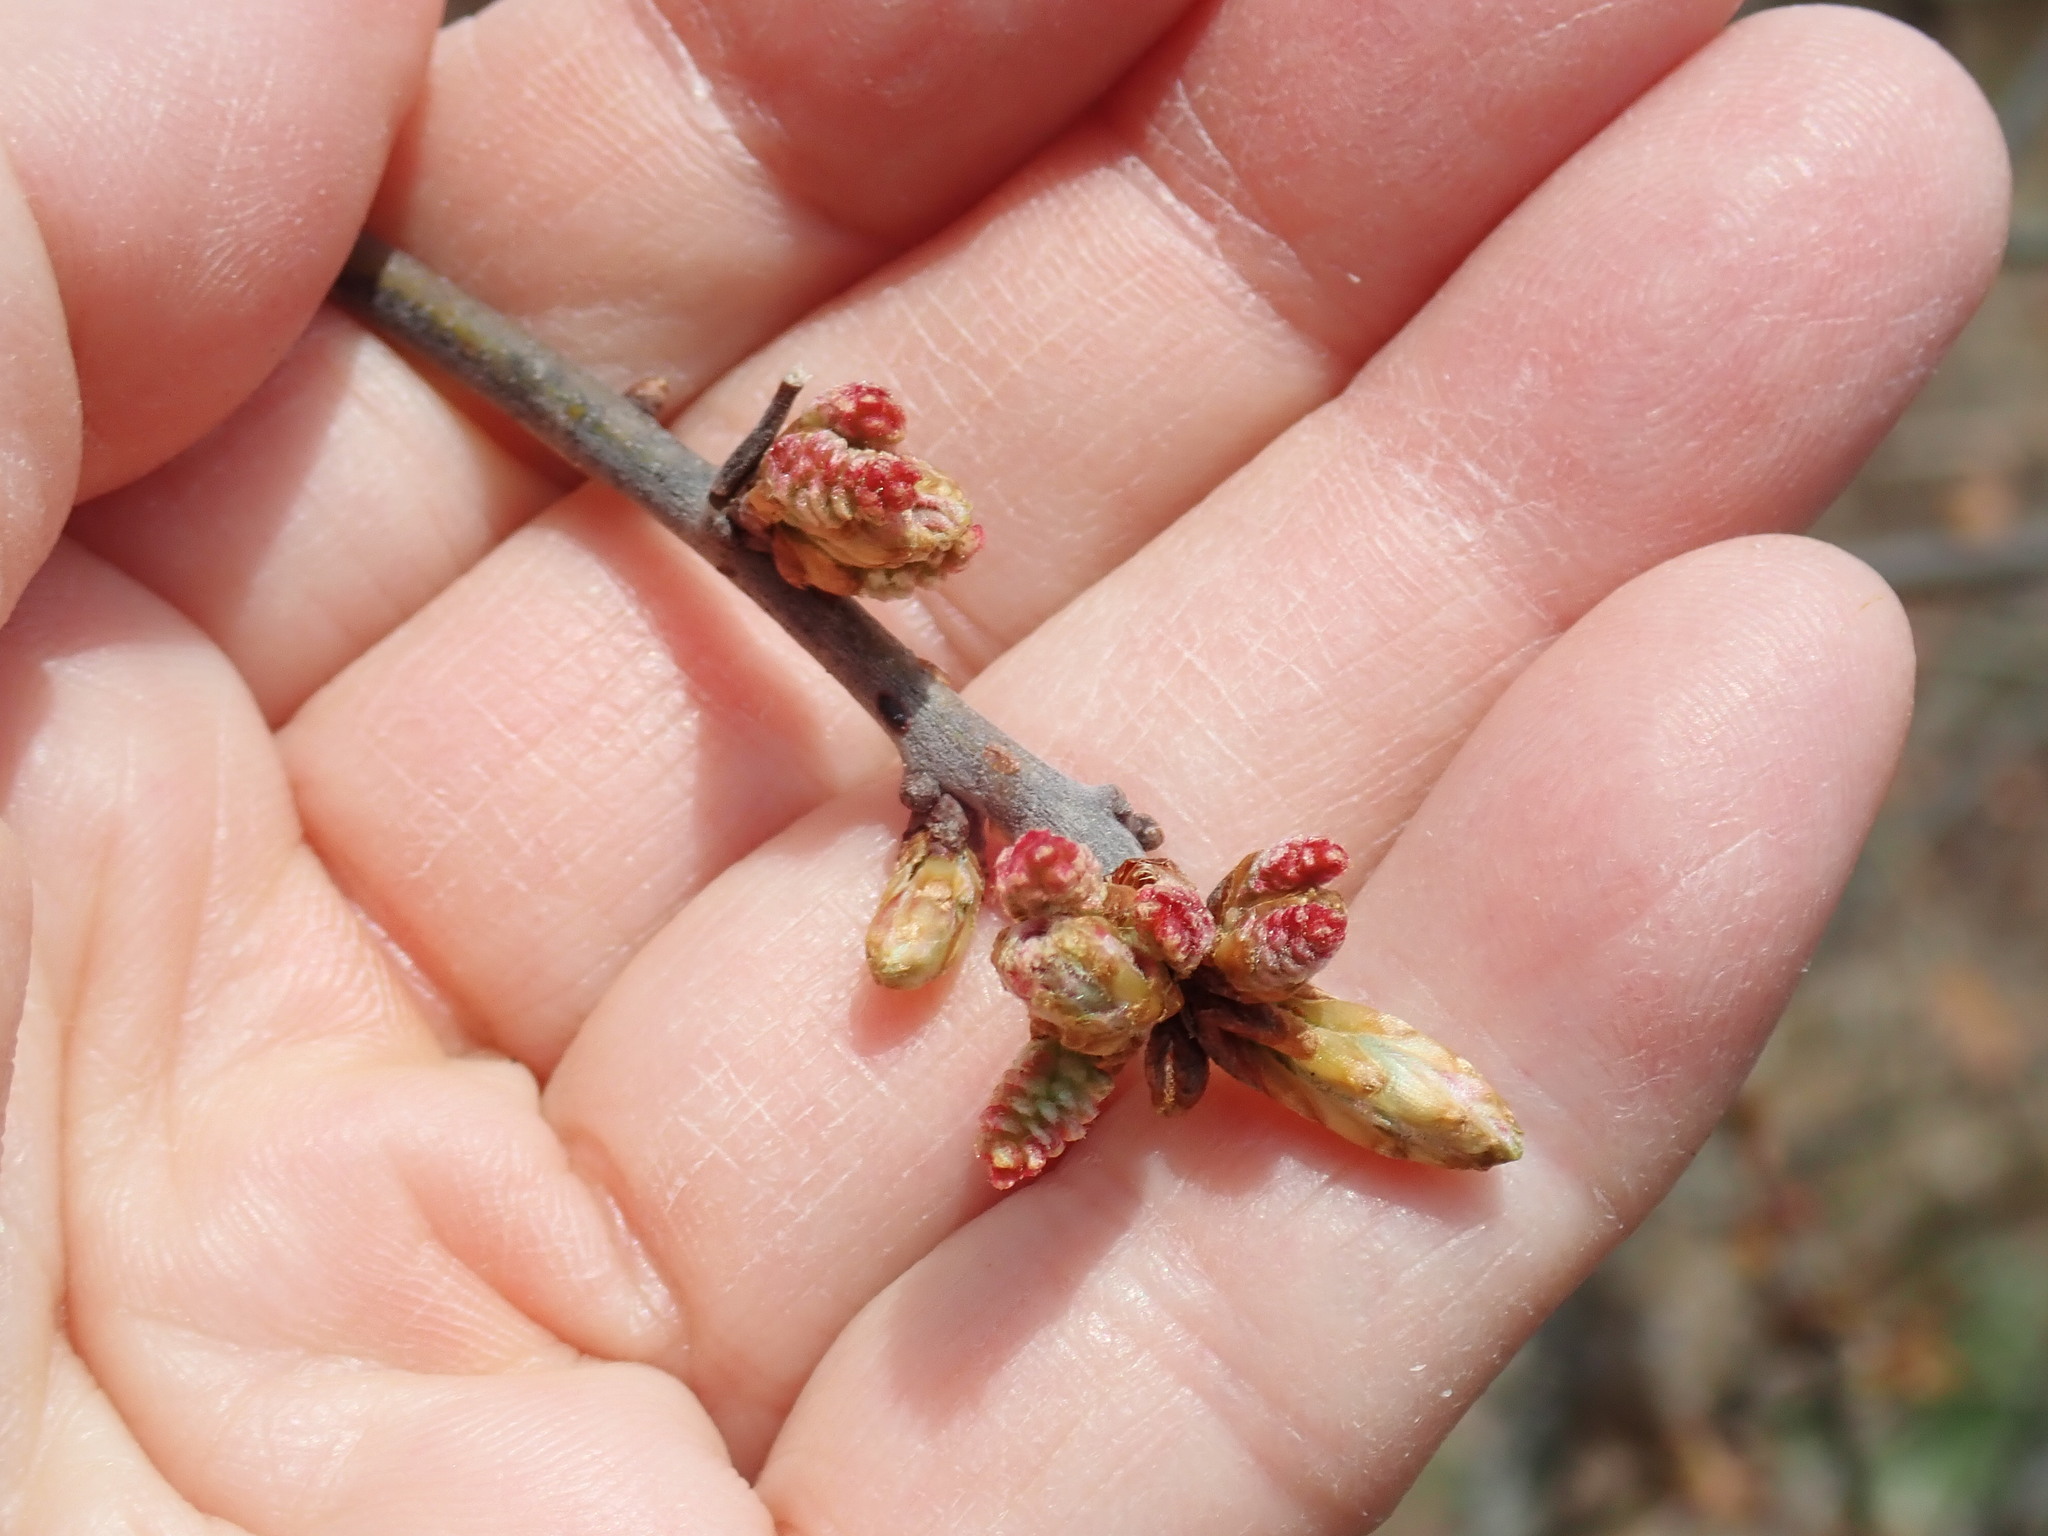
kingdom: Plantae
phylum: Tracheophyta
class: Magnoliopsida
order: Fagales
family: Fagaceae
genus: Quercus
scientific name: Quercus ilicifolia
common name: Bear oak
